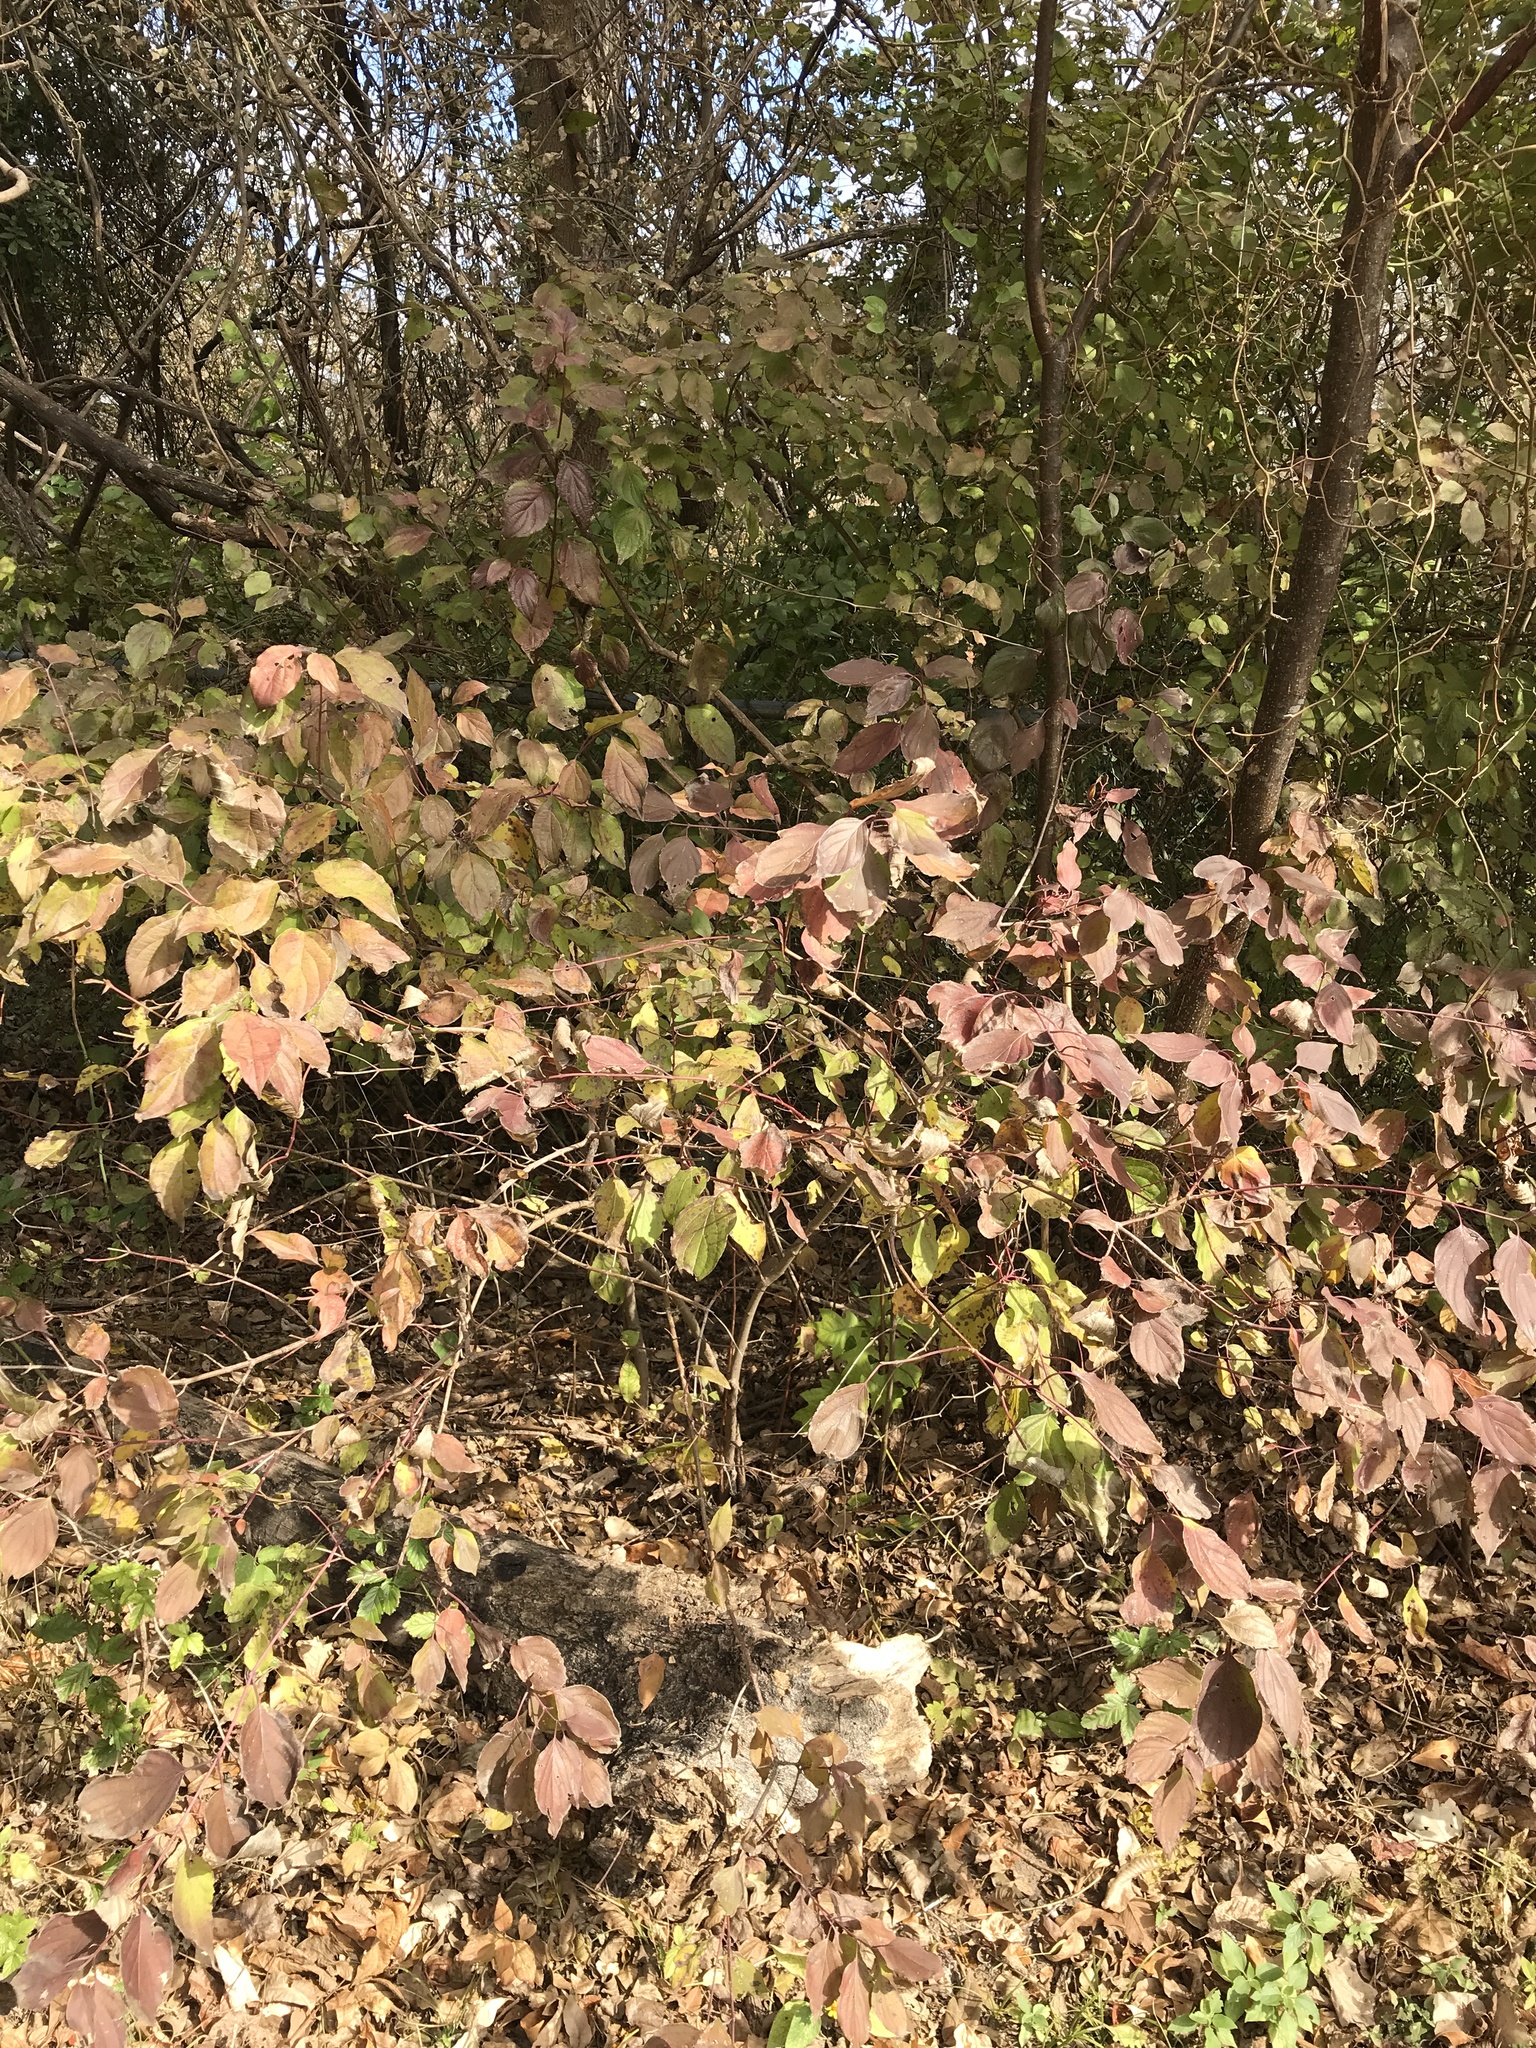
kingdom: Plantae
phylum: Tracheophyta
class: Magnoliopsida
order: Cornales
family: Cornaceae
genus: Cornus
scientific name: Cornus drummondii
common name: Rough-leaf dogwood
